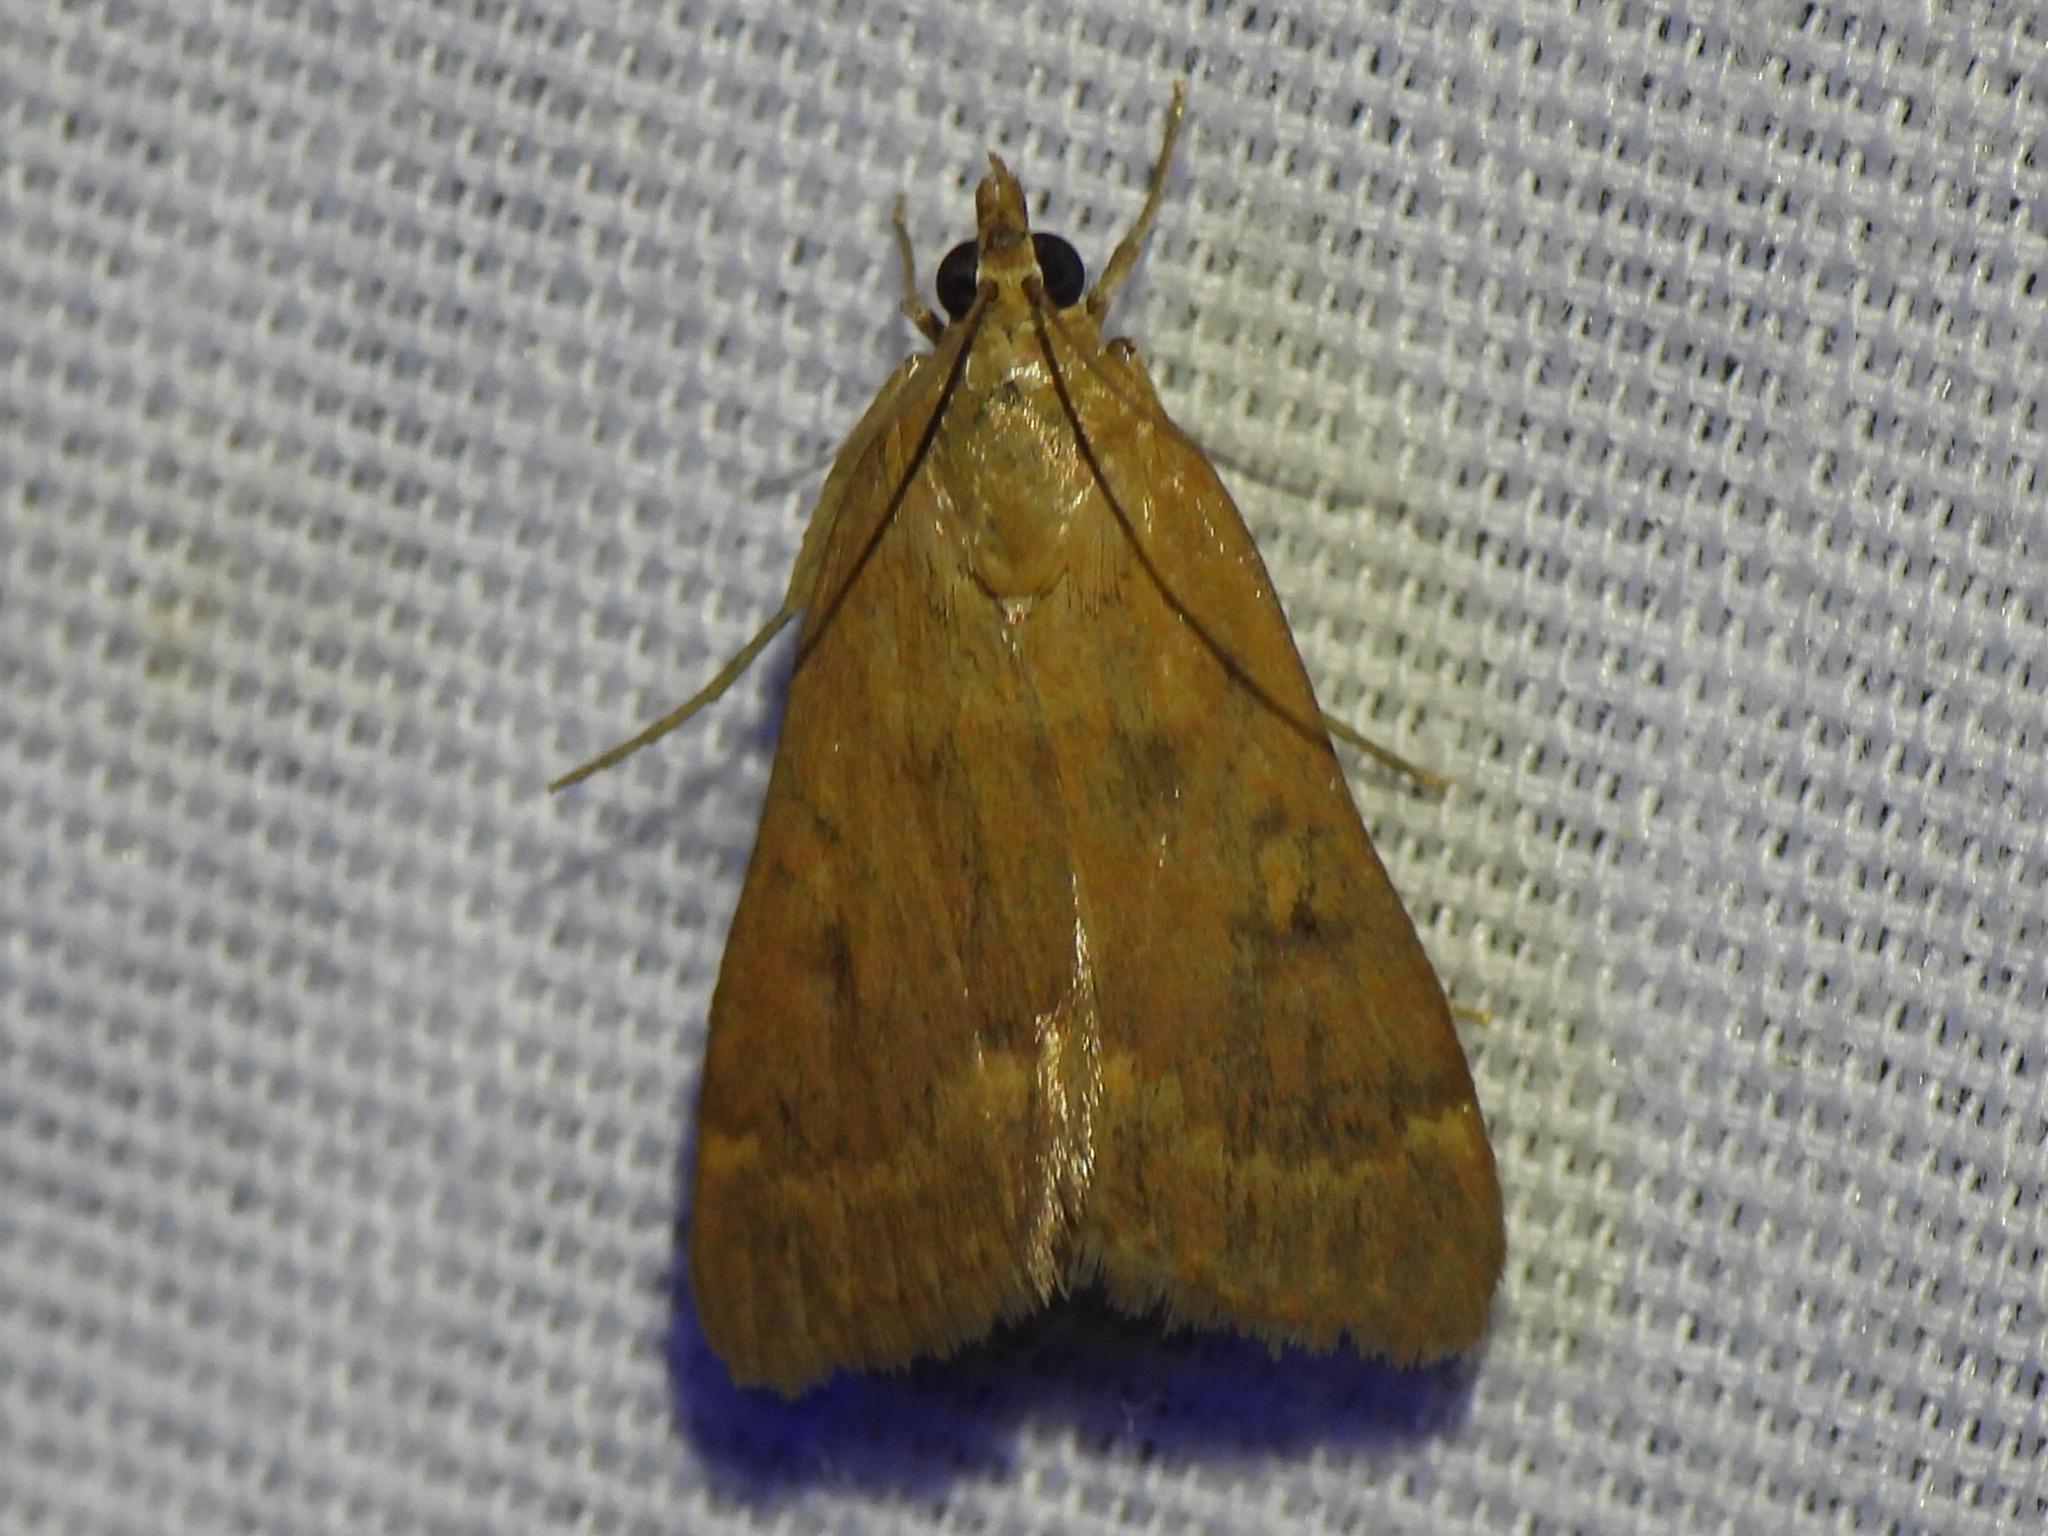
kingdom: Animalia
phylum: Arthropoda
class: Insecta
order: Lepidoptera
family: Crambidae
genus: Achyra
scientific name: Achyra rantalis
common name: Garden webworm
